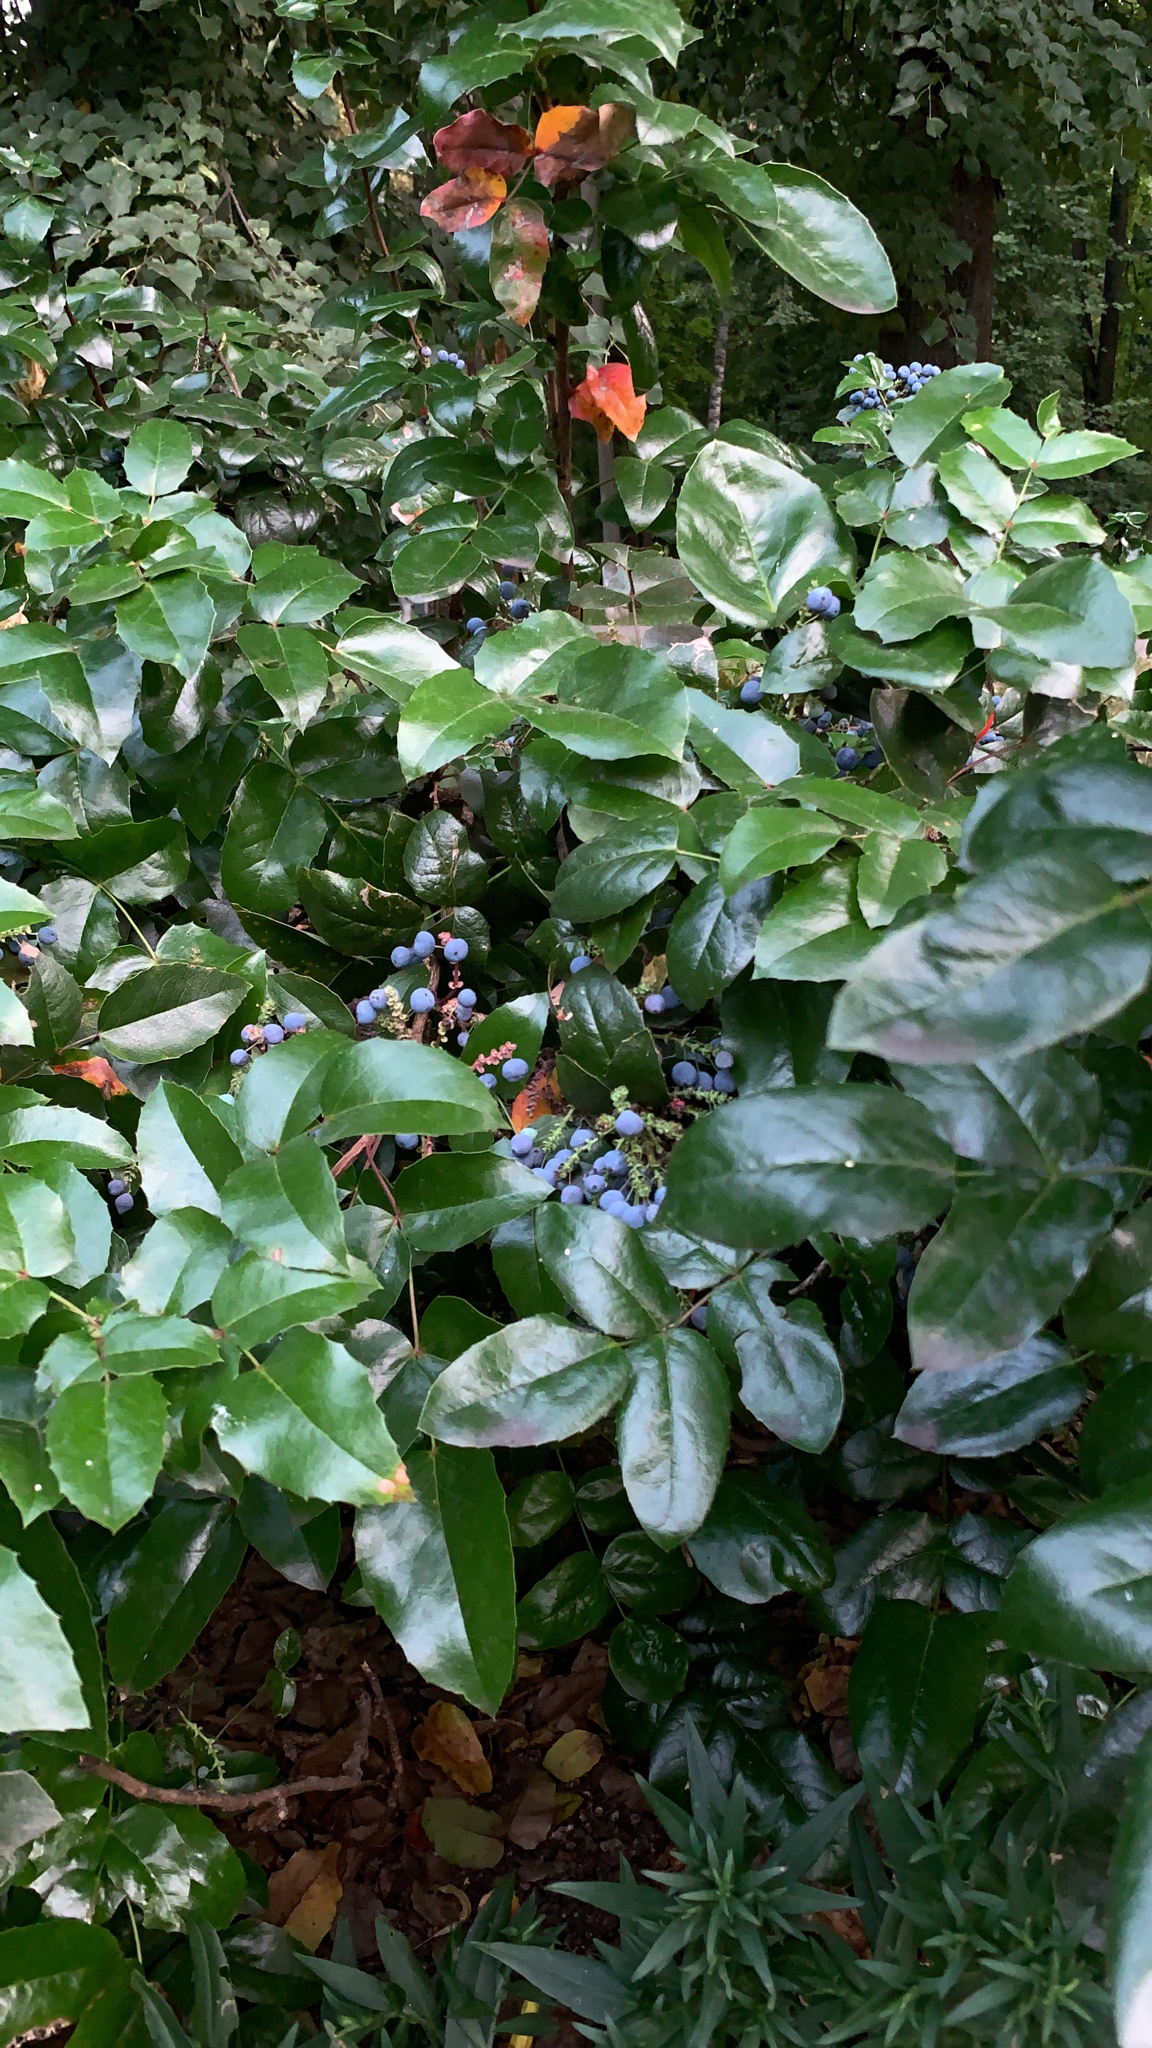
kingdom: Plantae
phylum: Tracheophyta
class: Magnoliopsida
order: Ranunculales
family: Berberidaceae
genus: Mahonia
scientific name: Mahonia aquifolium
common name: Oregon-grape
